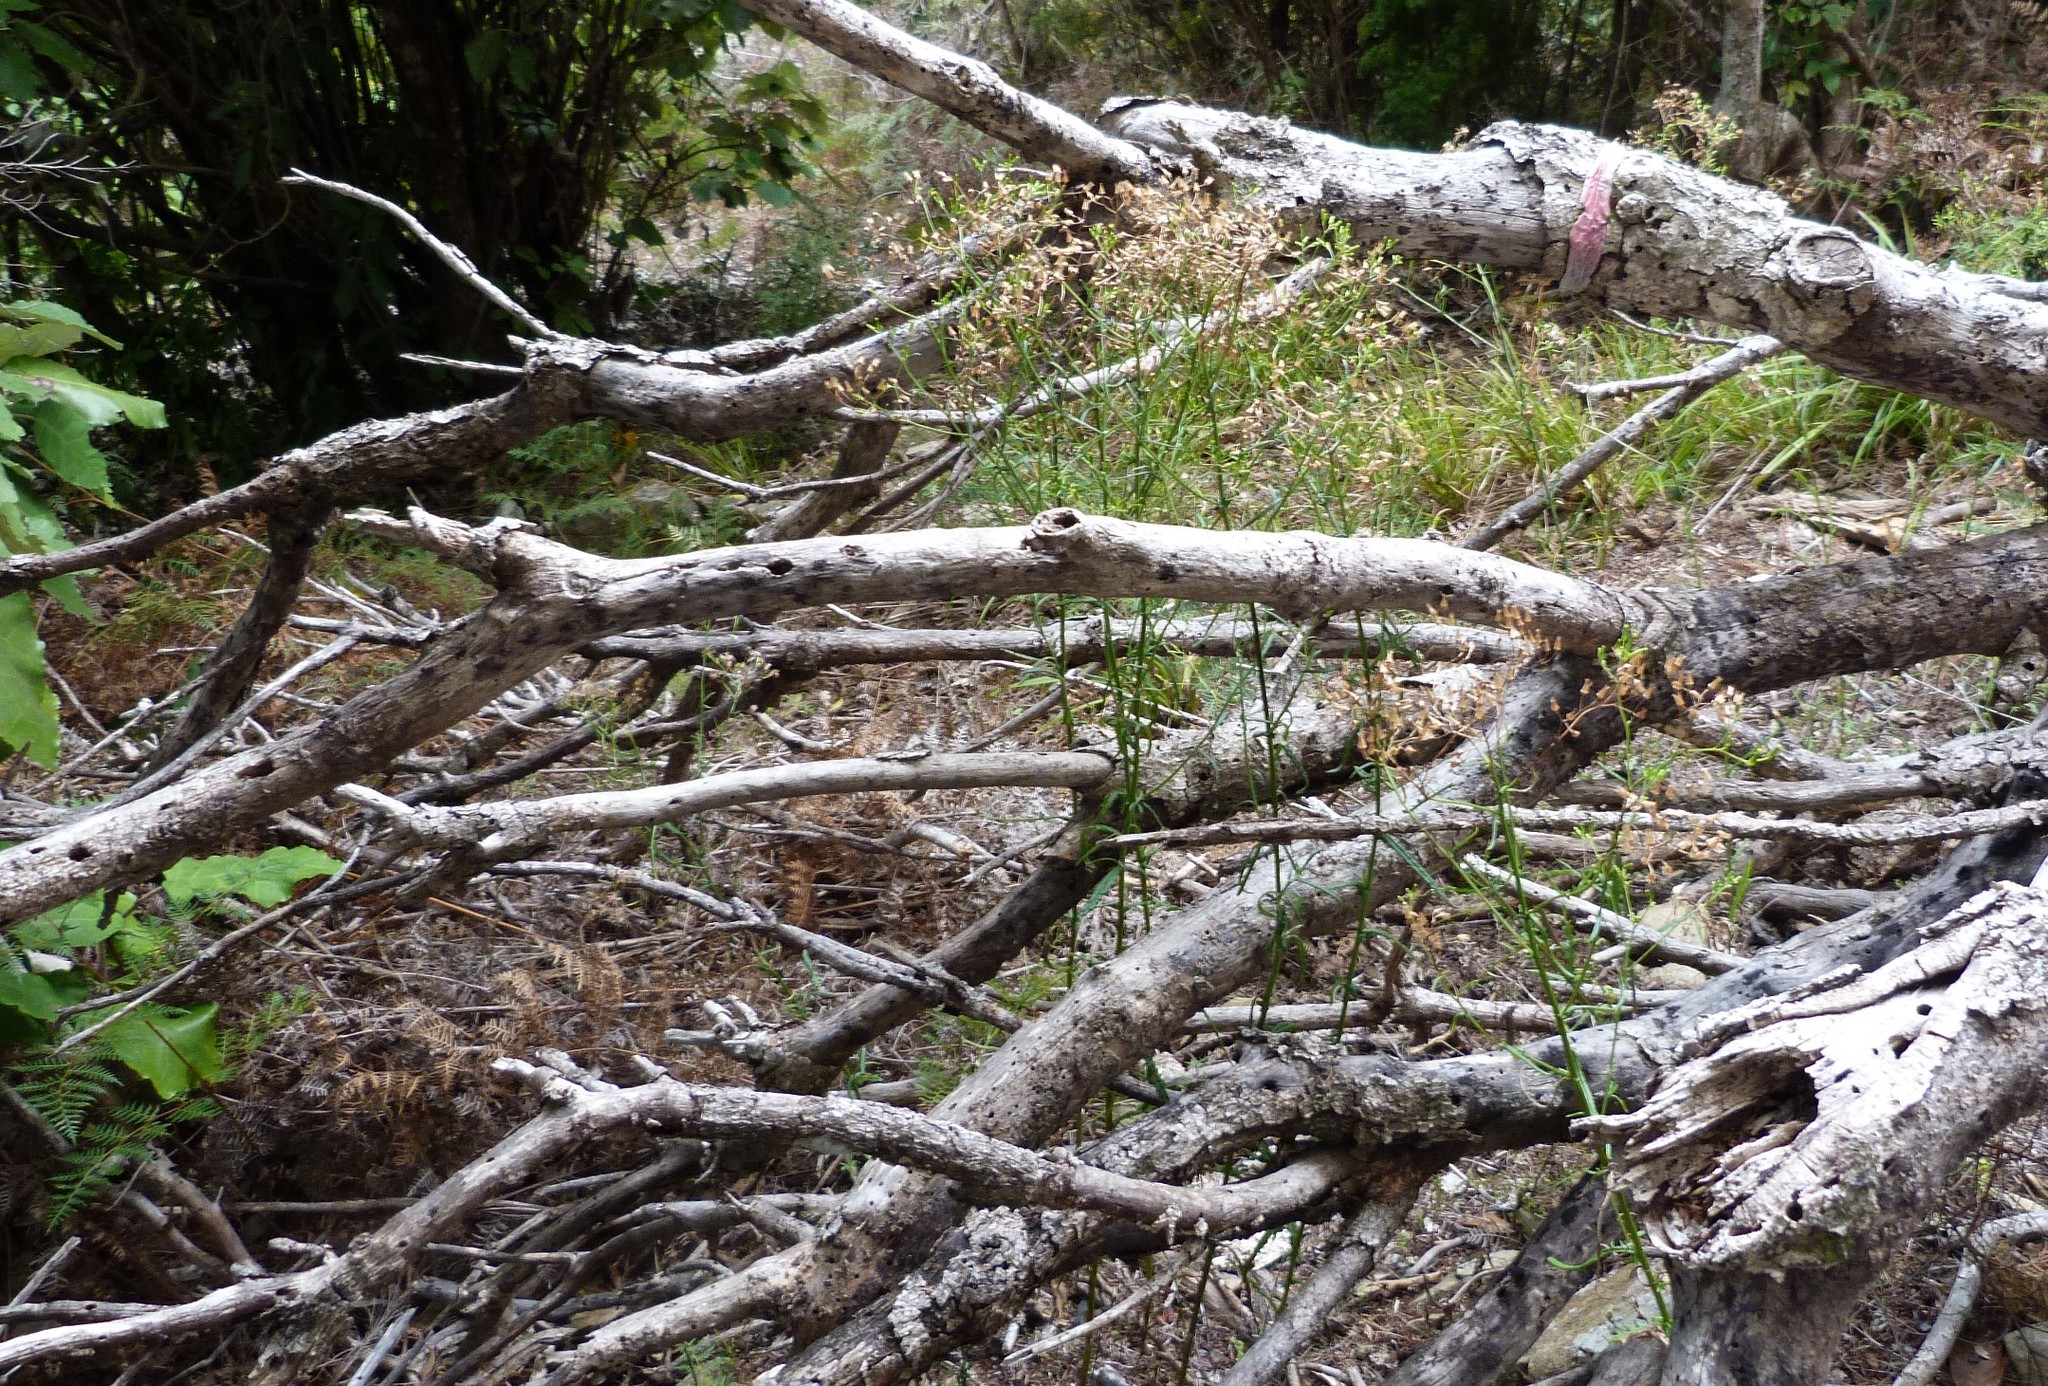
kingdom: Plantae
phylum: Tracheophyta
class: Magnoliopsida
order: Asterales
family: Asteraceae
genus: Senecio
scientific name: Senecio hispidulus
